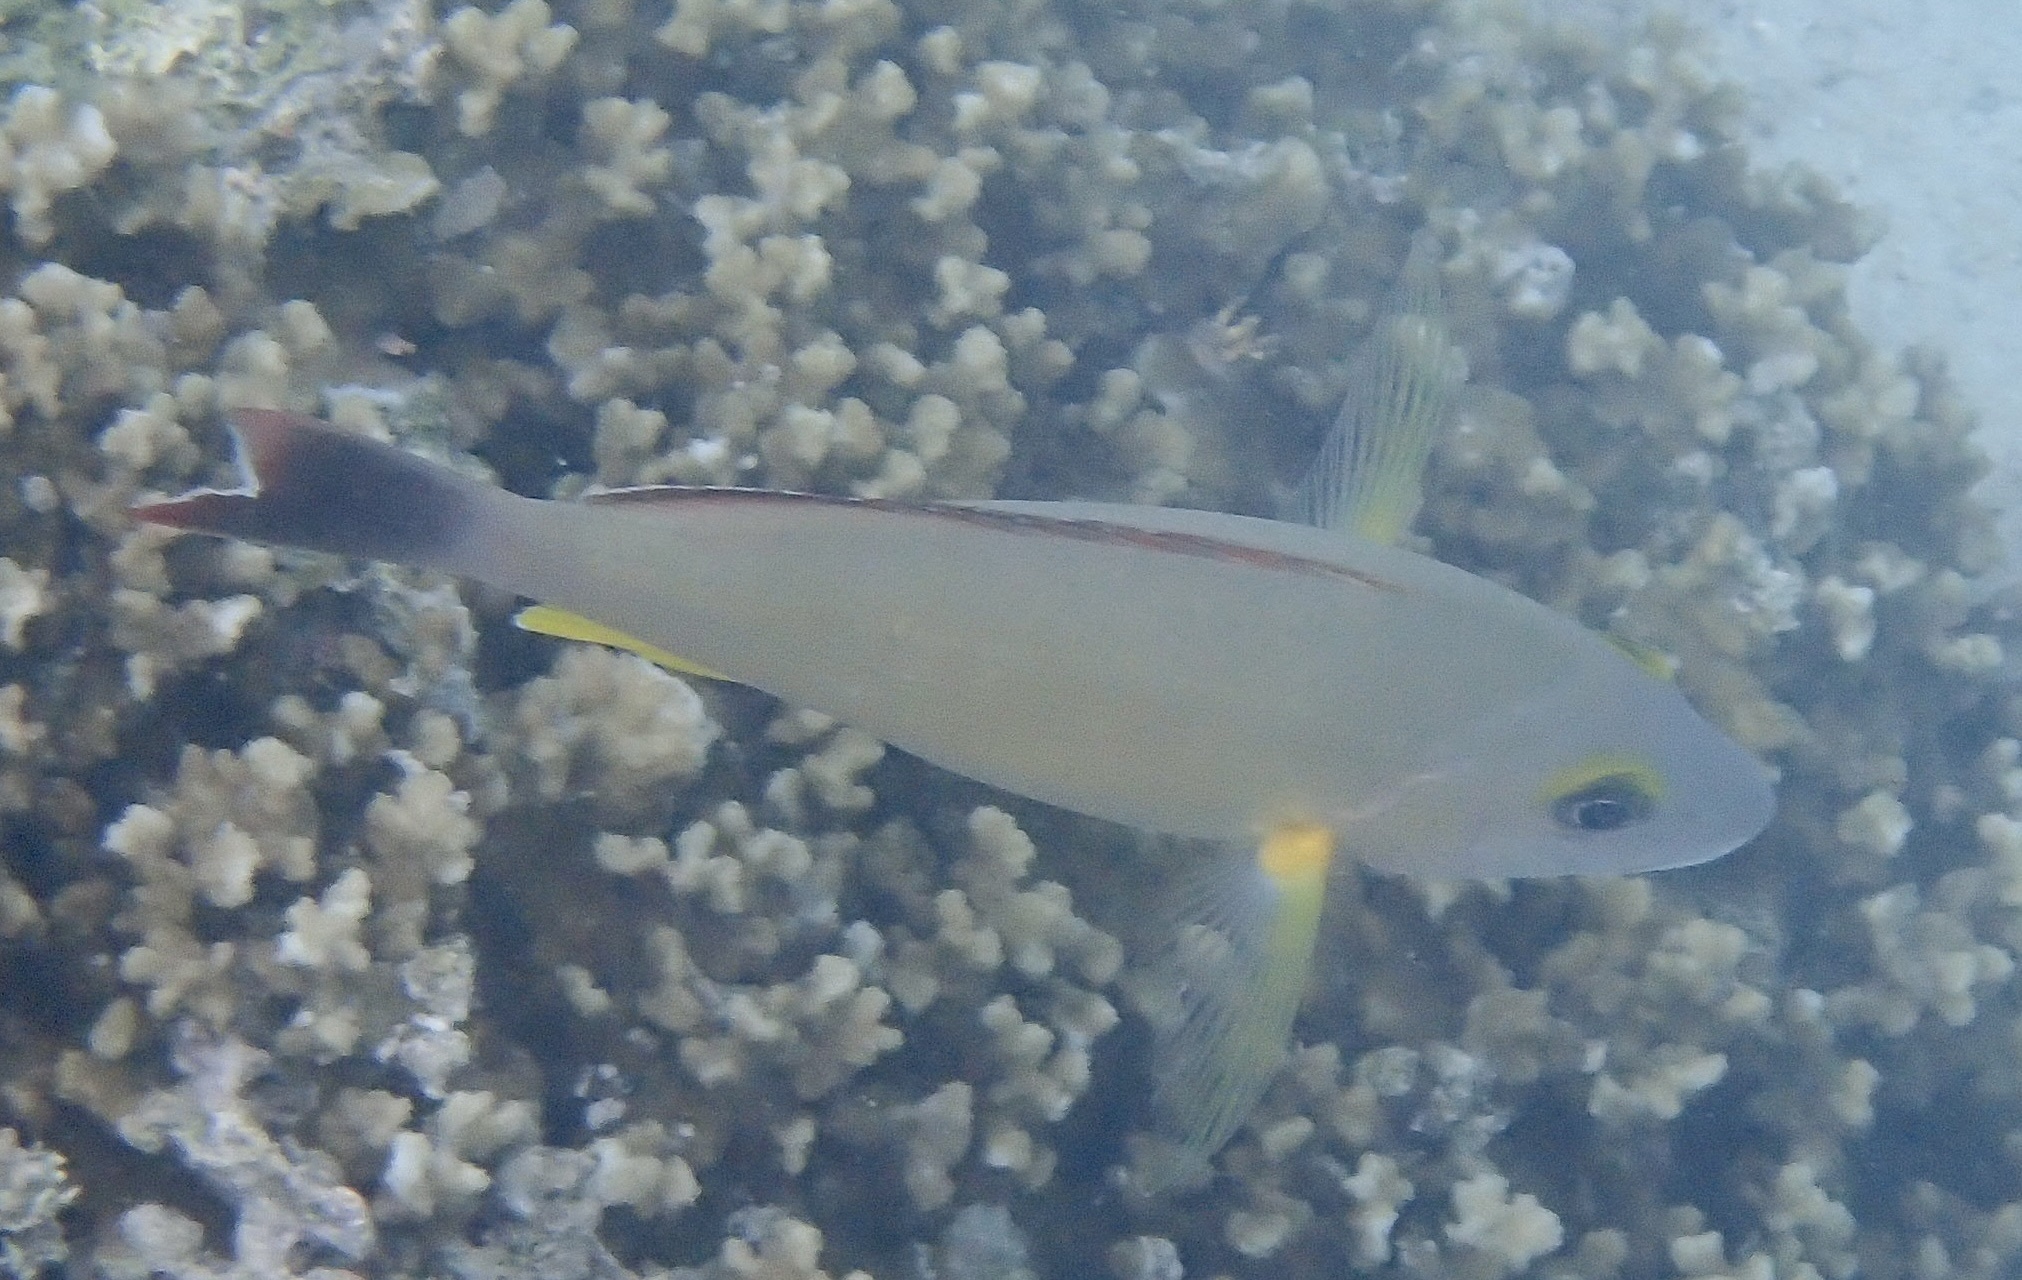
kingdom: Animalia
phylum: Chordata
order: Perciformes
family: Lutjanidae
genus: Lutjanus
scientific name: Lutjanus fulvus
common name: Blacktail snapper
